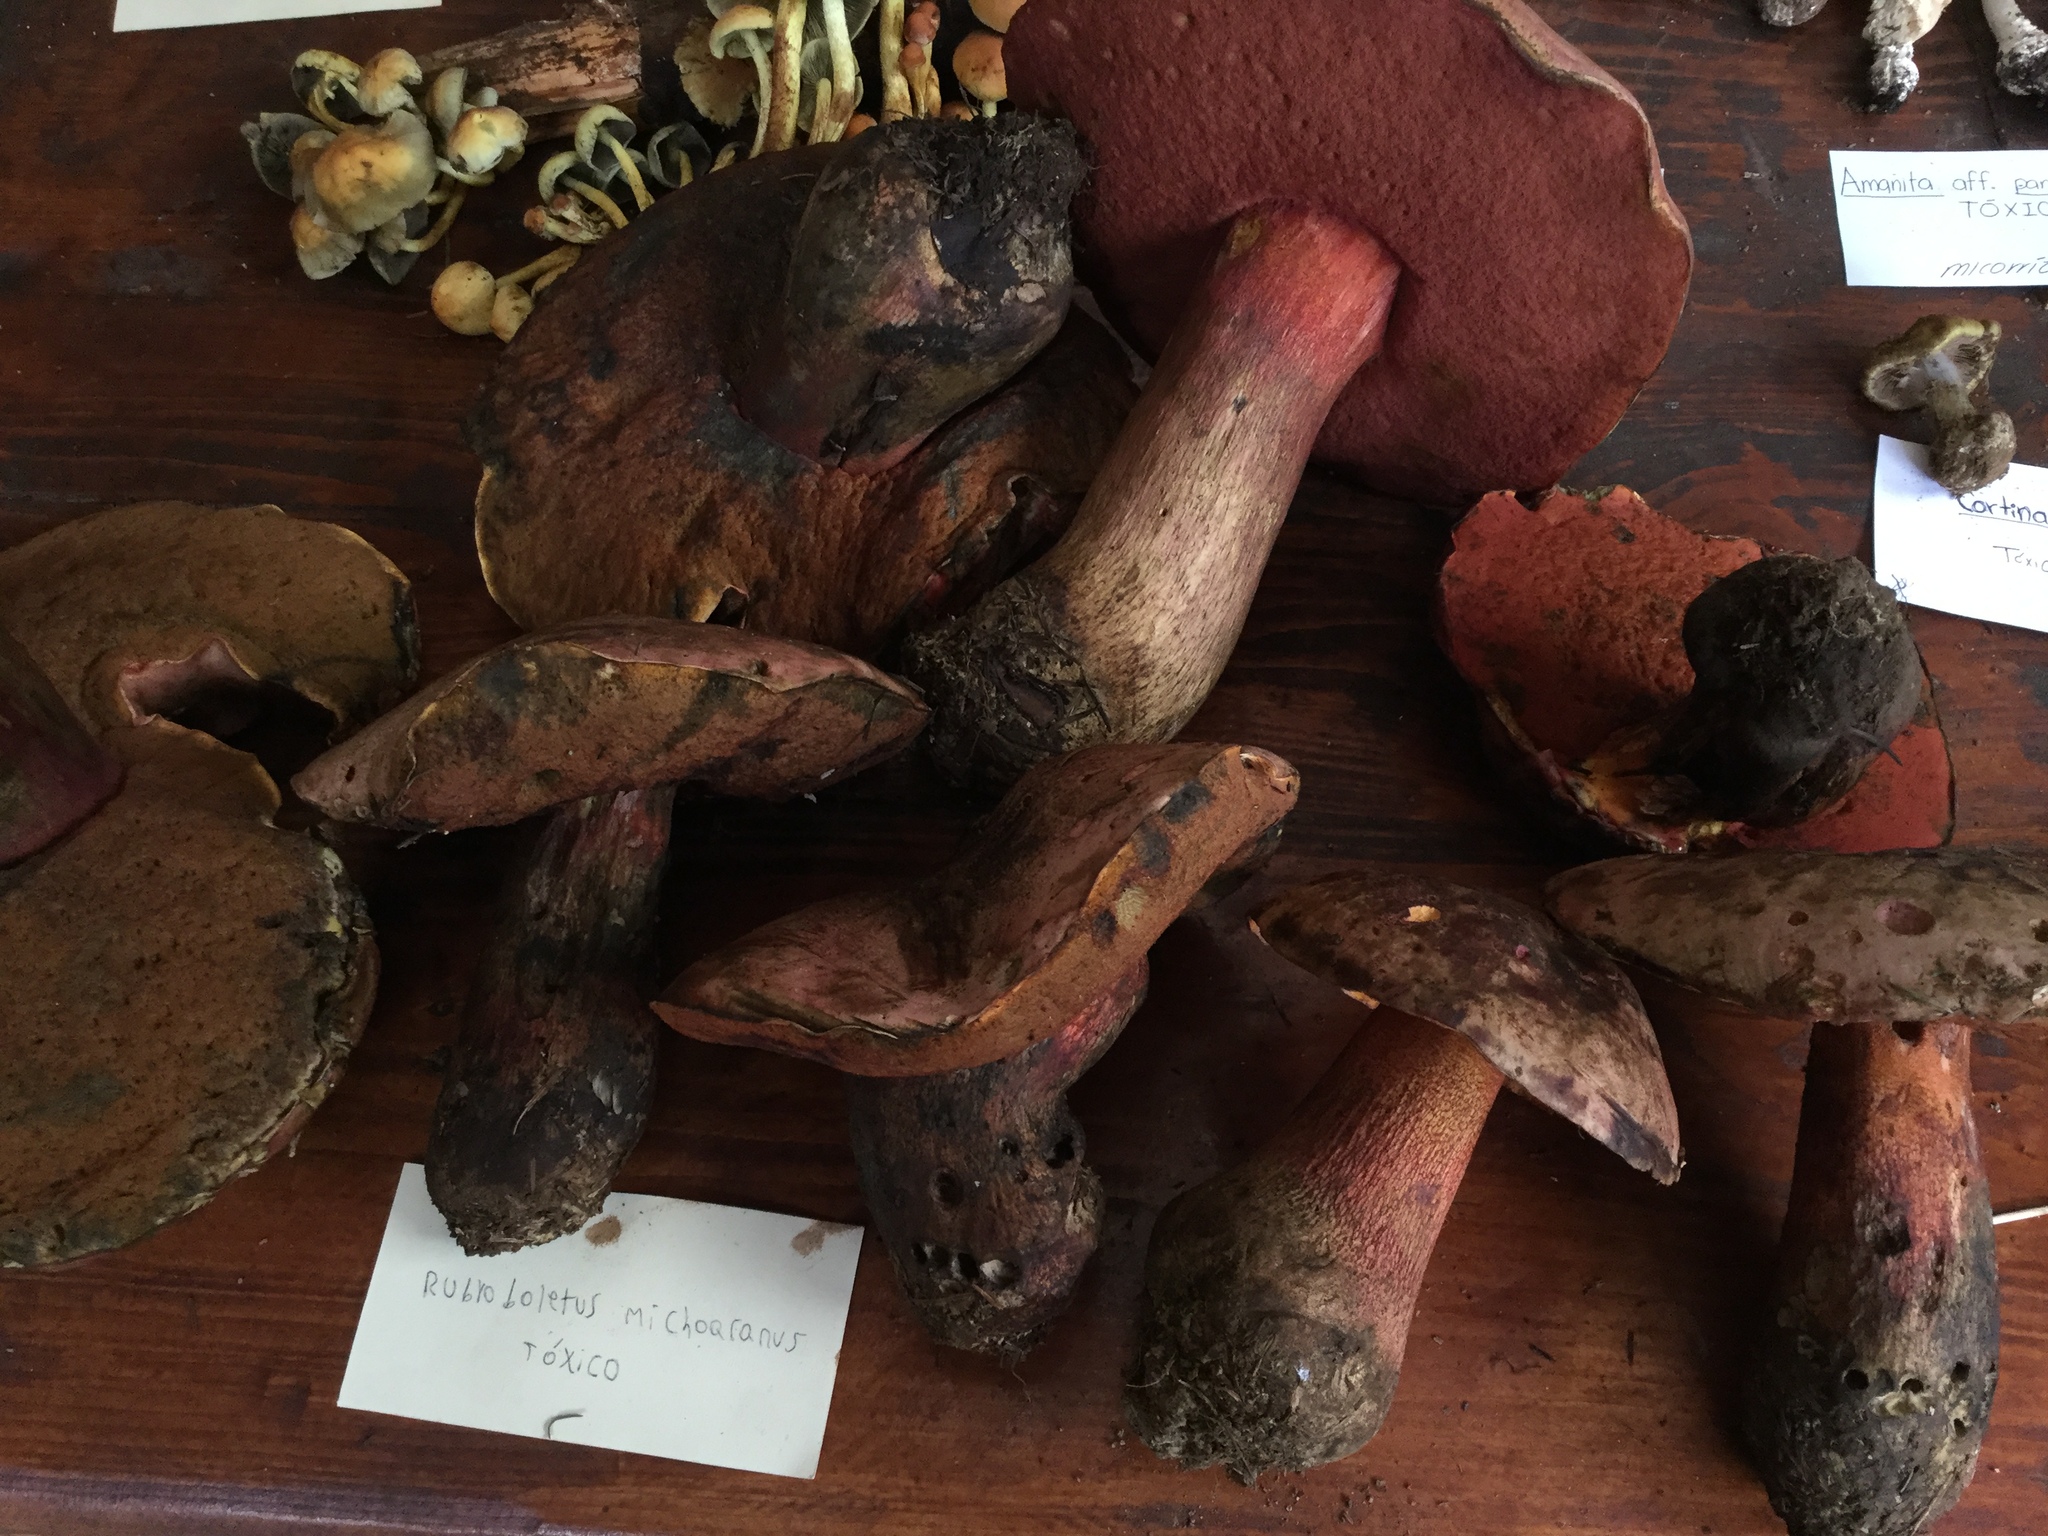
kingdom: Fungi
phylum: Basidiomycota
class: Agaricomycetes
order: Boletales
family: Boletaceae
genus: Boletus
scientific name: Boletus michoacanus
